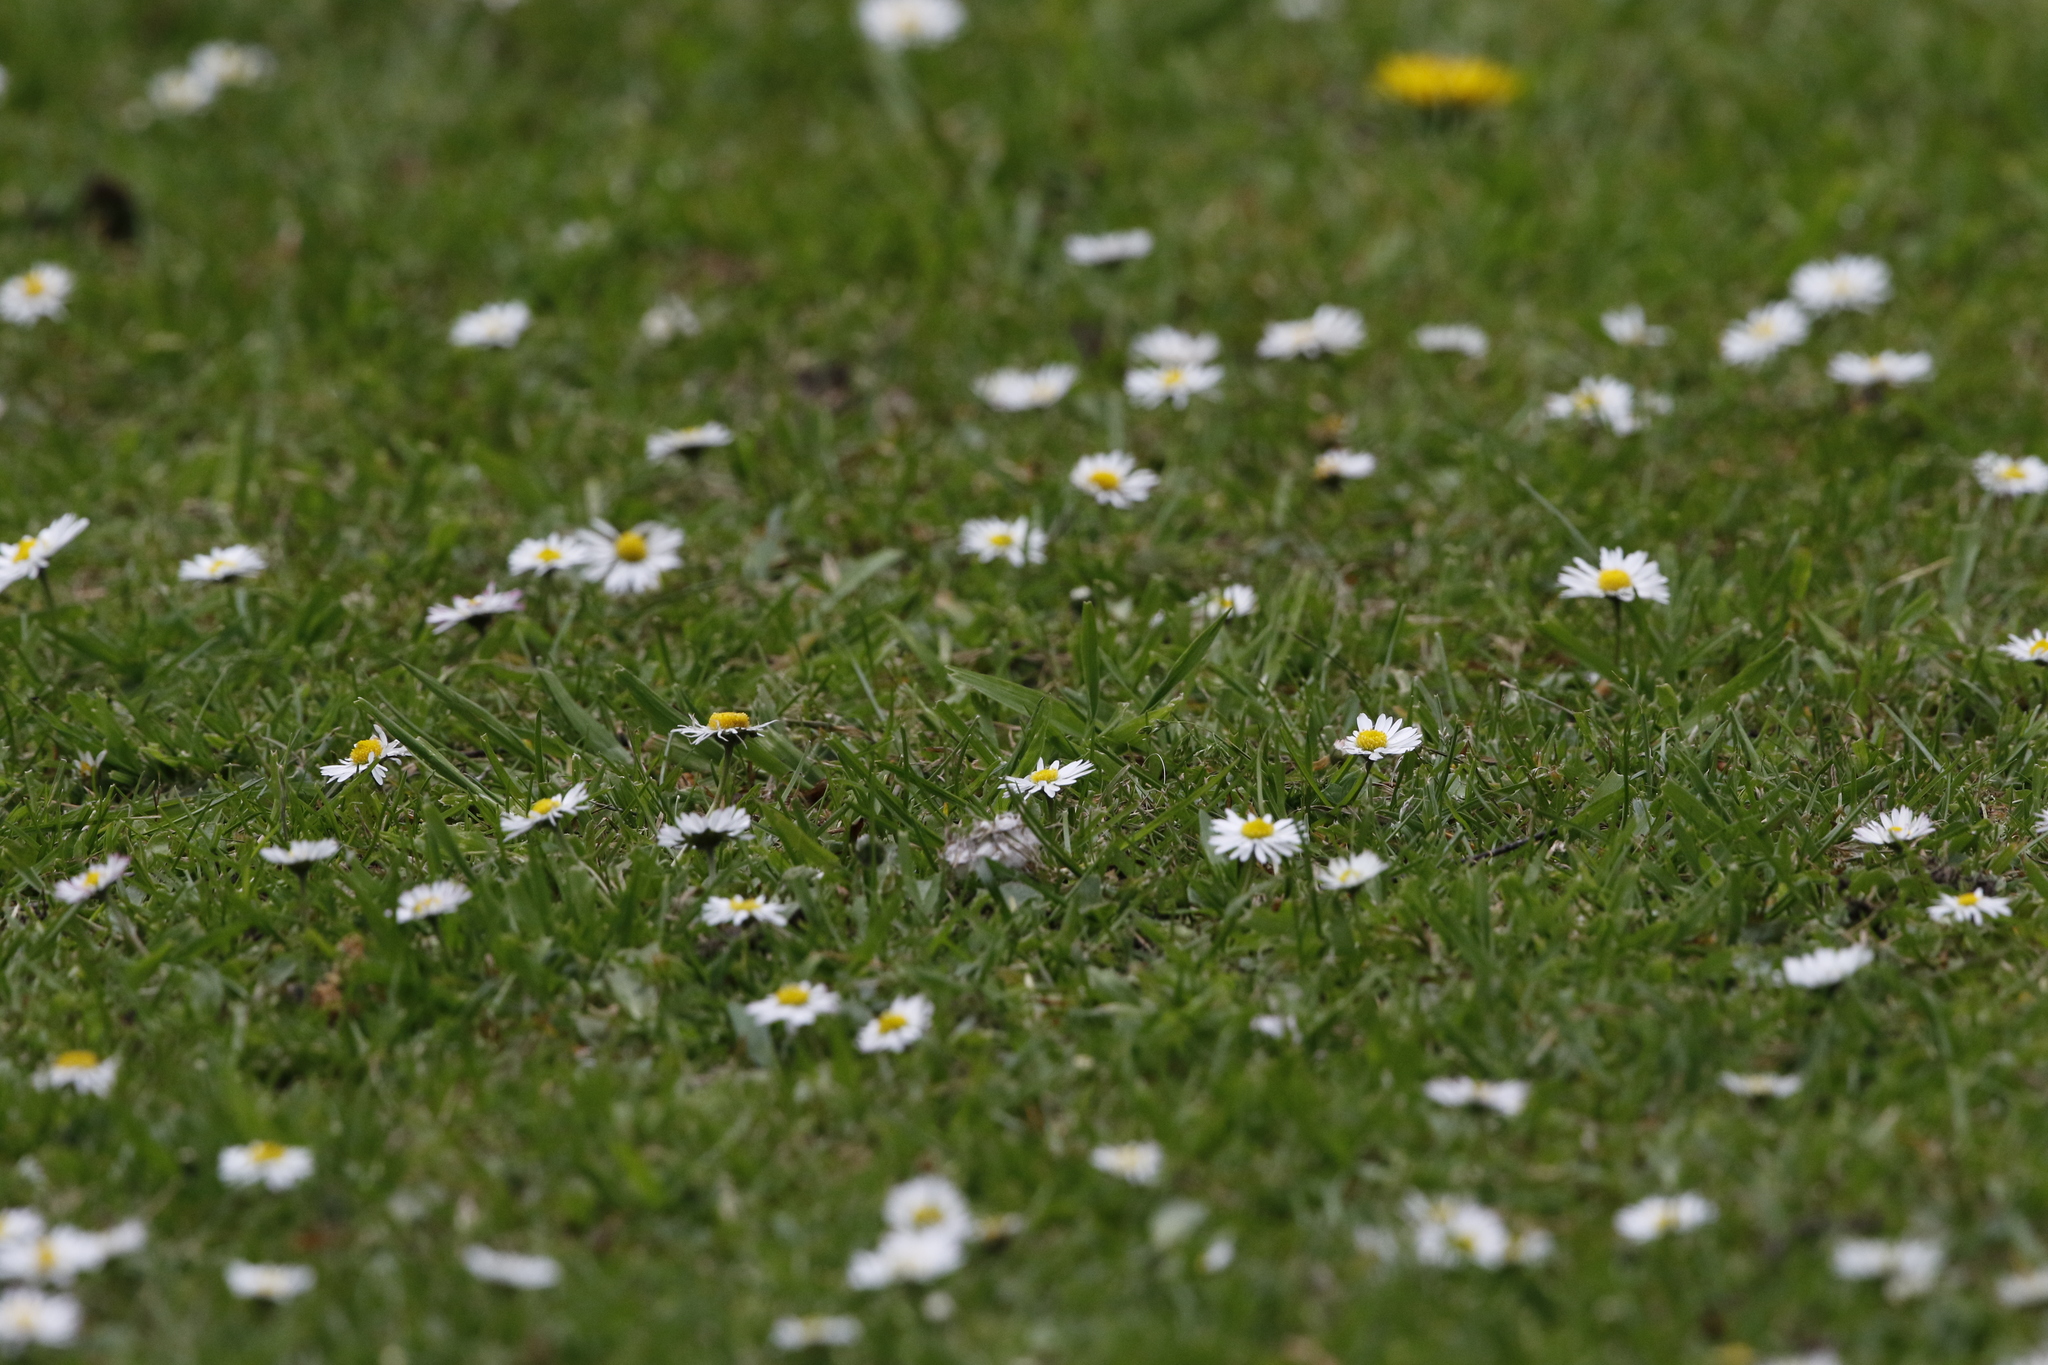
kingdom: Plantae
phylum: Tracheophyta
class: Magnoliopsida
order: Asterales
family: Asteraceae
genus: Bellis
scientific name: Bellis perennis
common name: Lawndaisy
